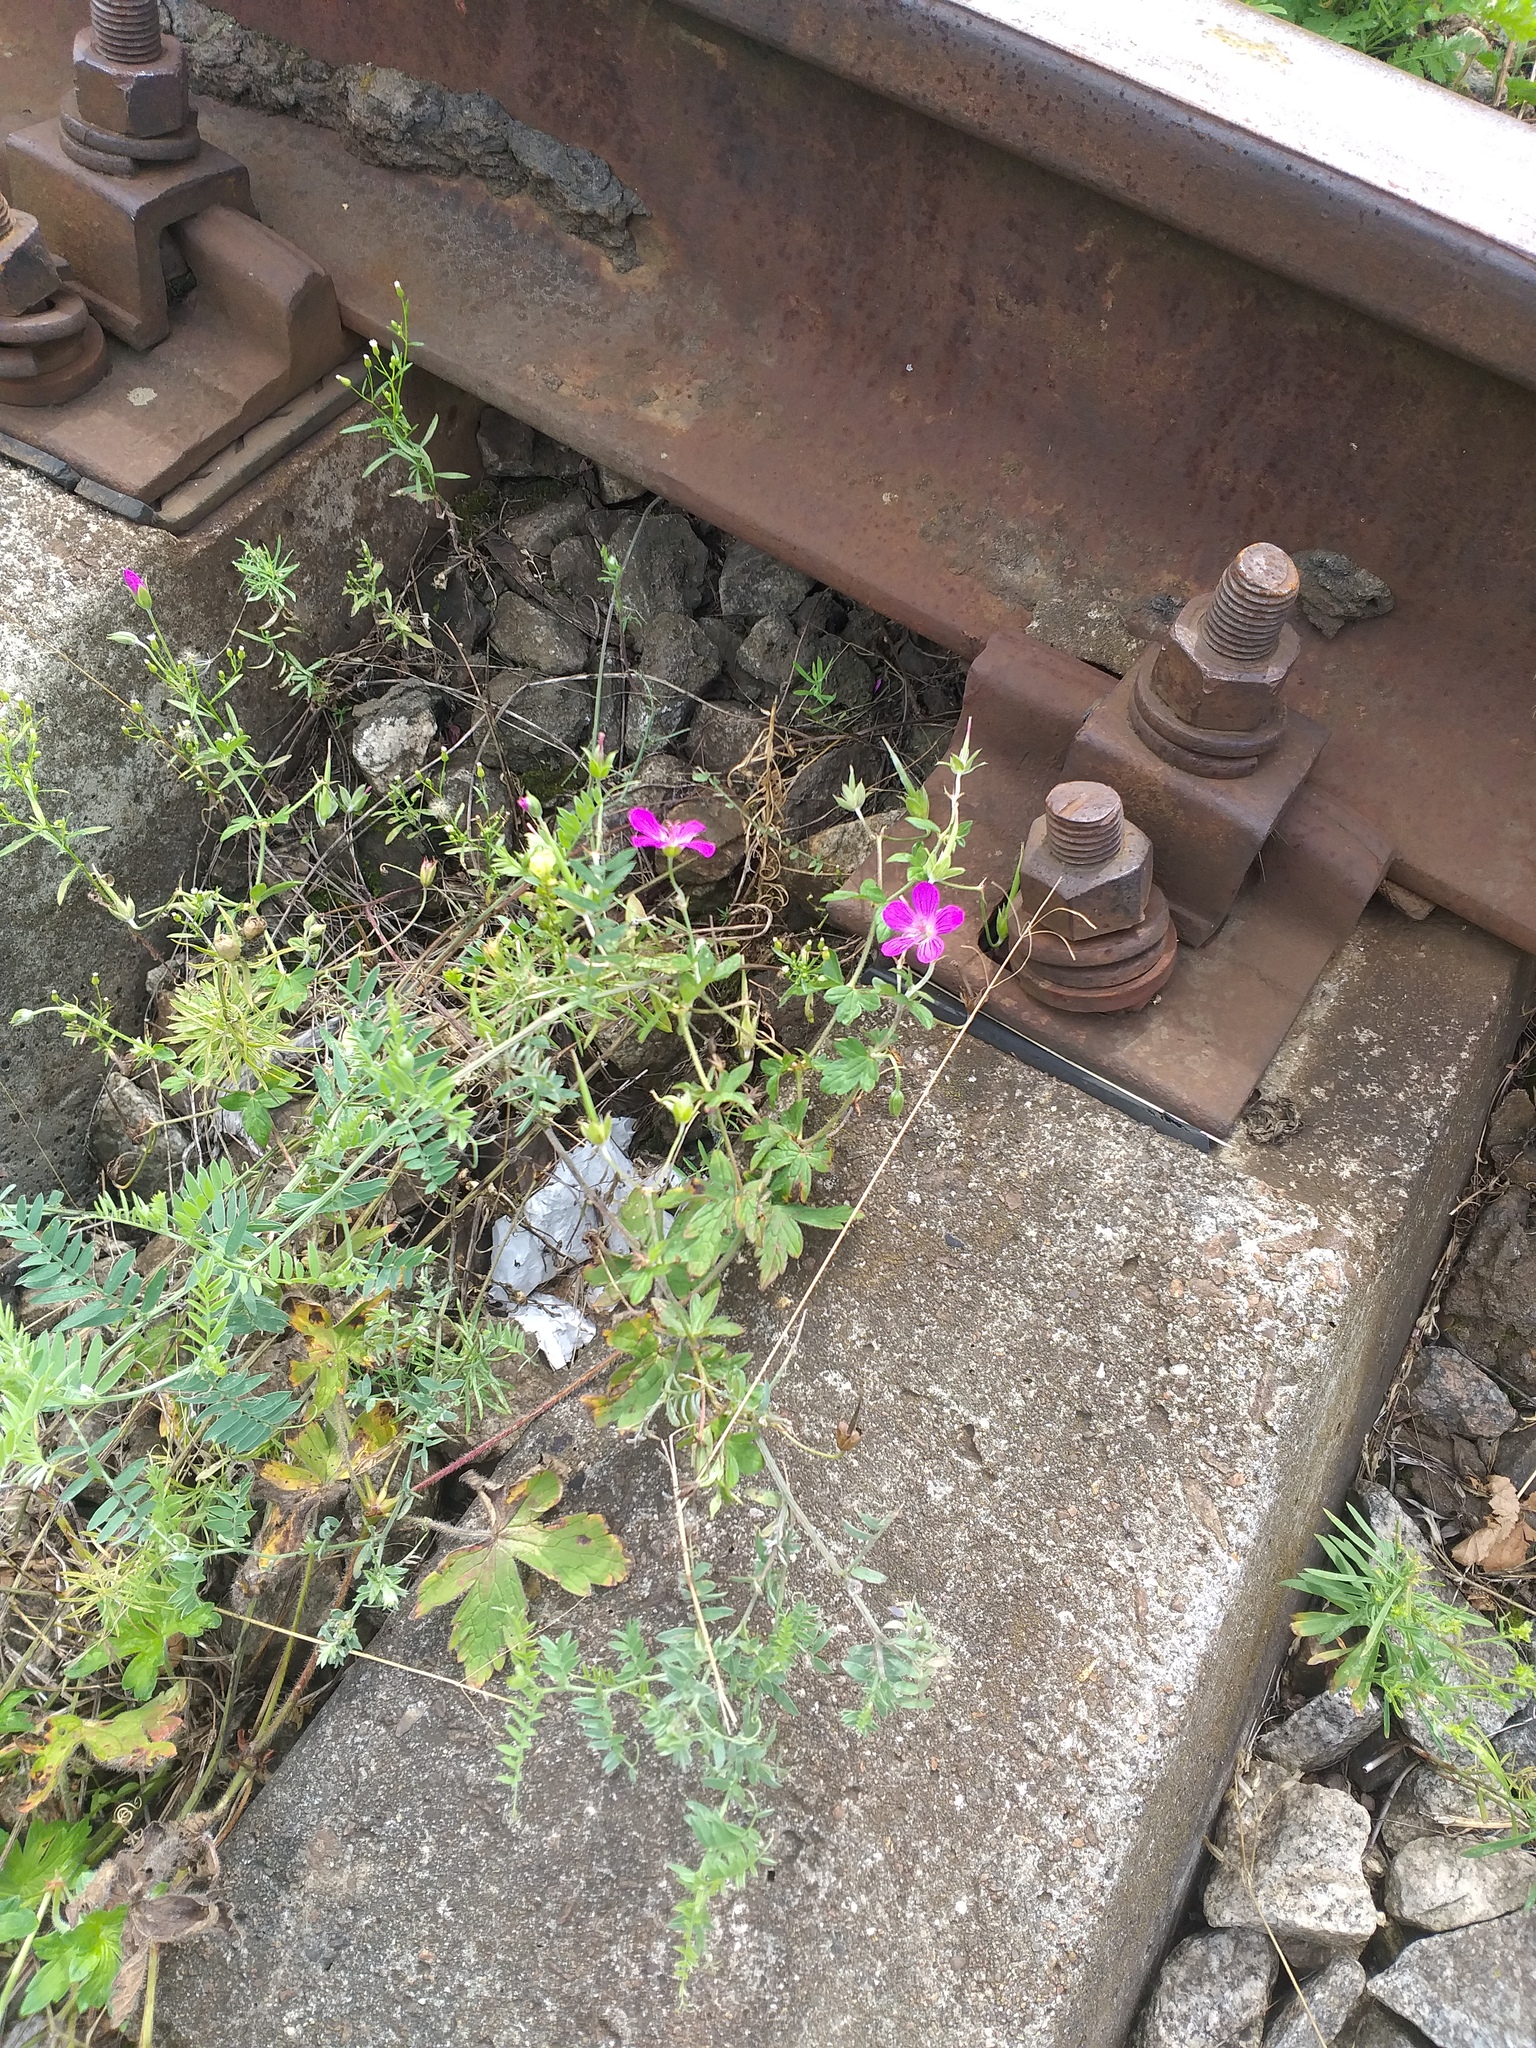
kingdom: Plantae
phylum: Tracheophyta
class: Magnoliopsida
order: Geraniales
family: Geraniaceae
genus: Geranium
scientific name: Geranium palustre
